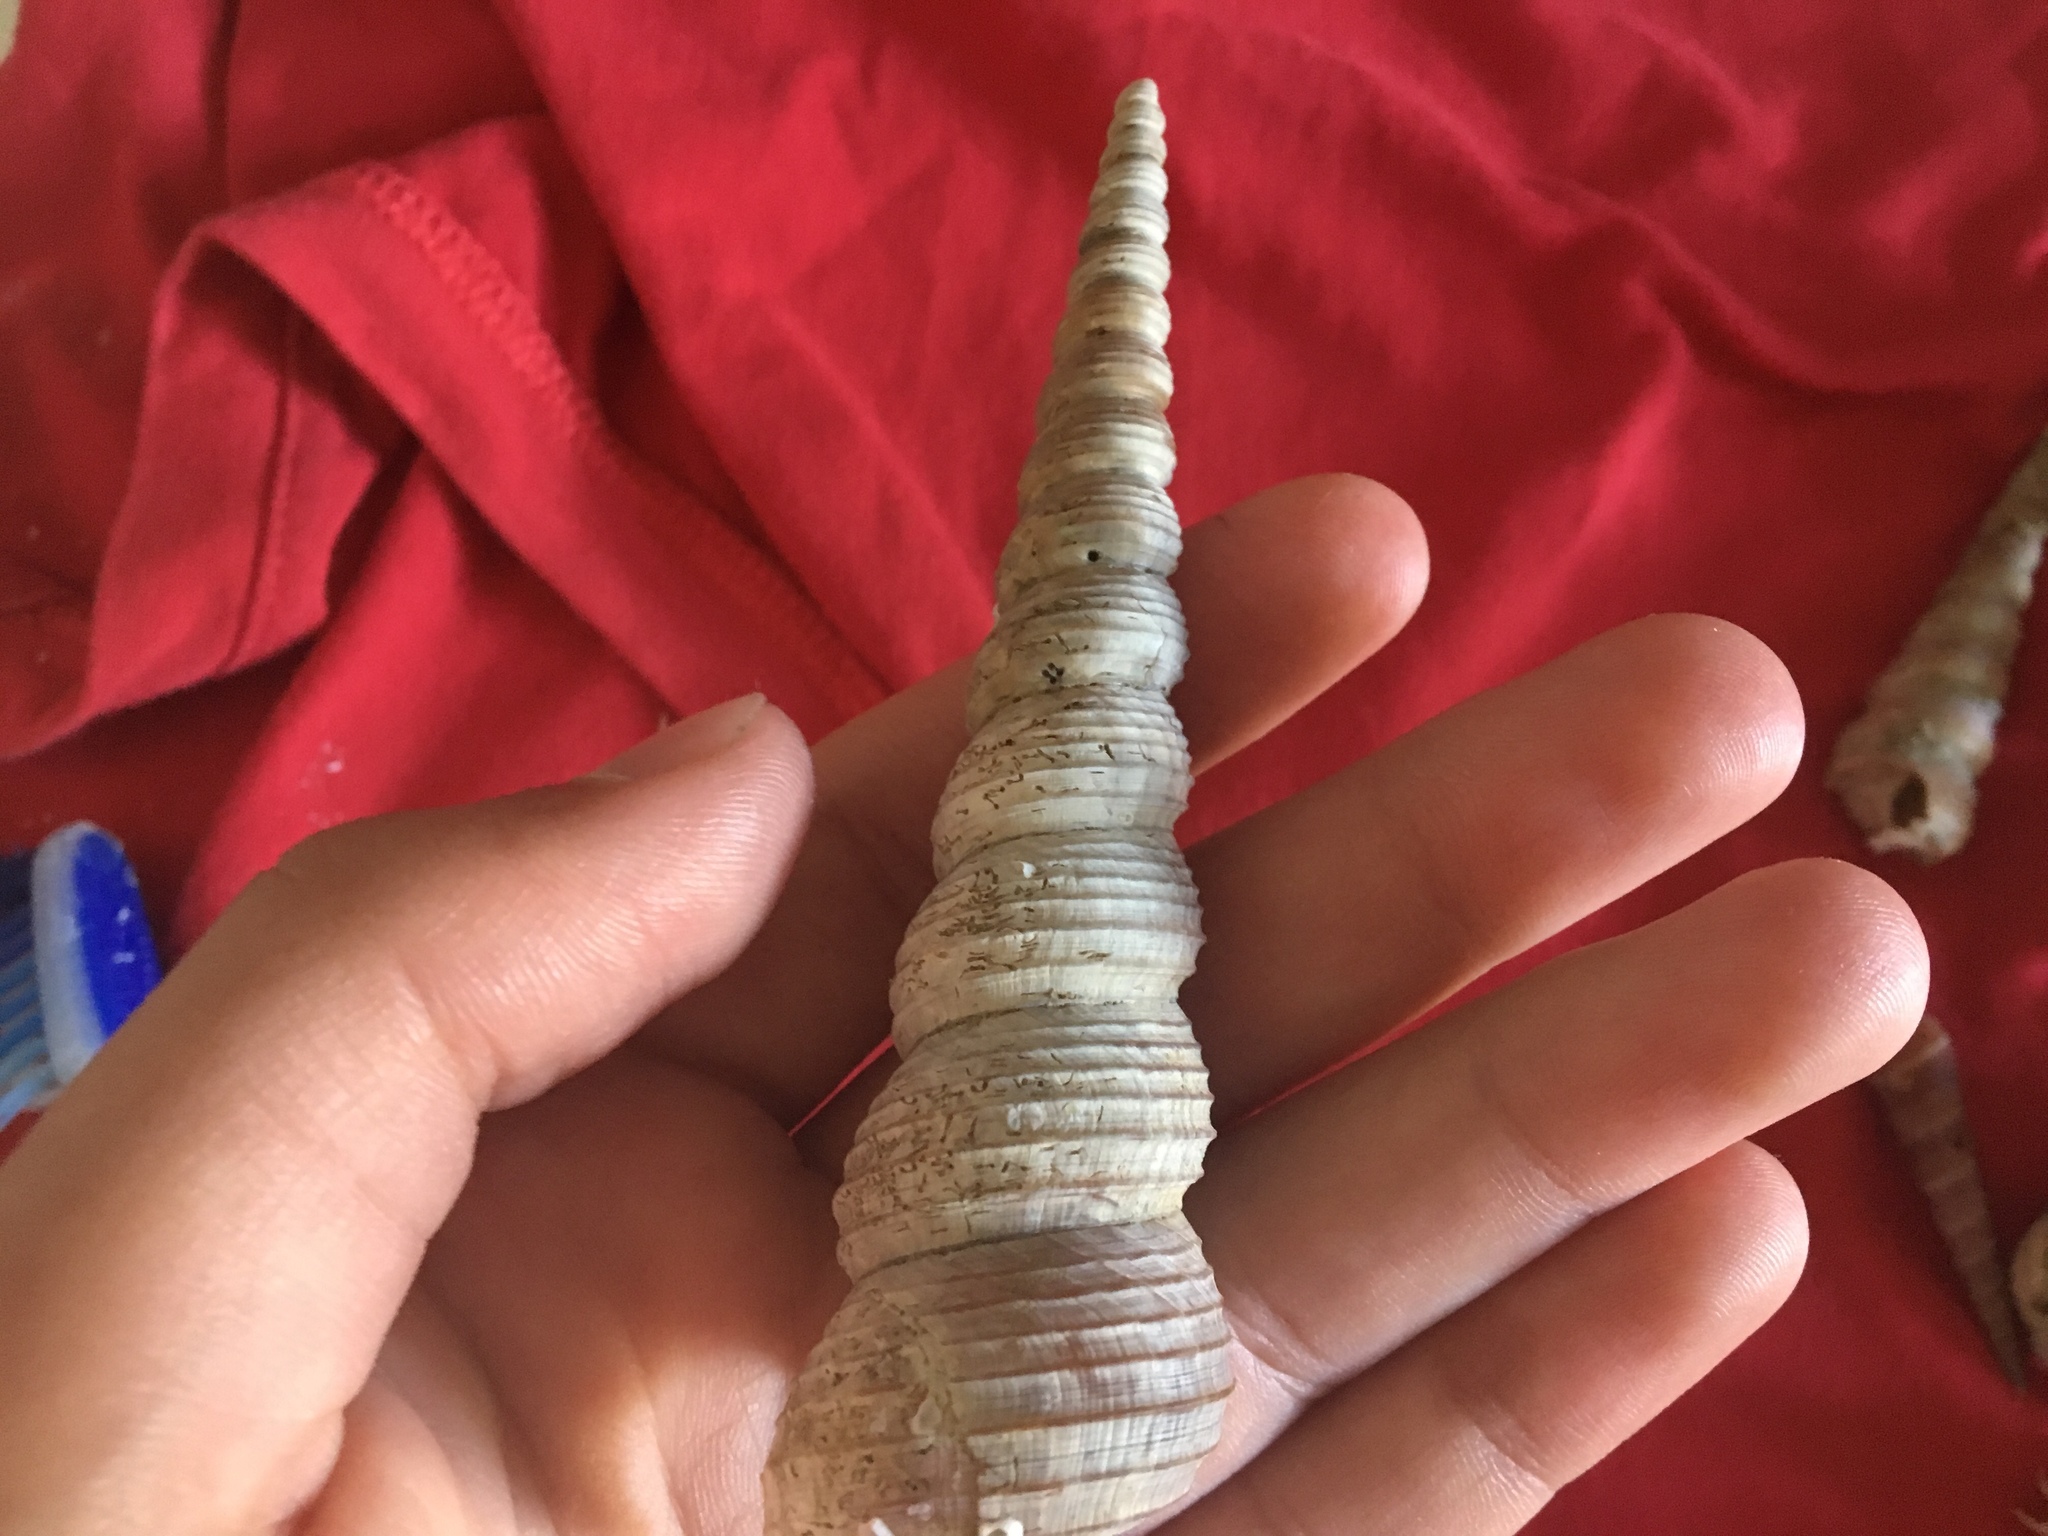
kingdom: Animalia
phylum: Mollusca
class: Gastropoda
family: Turritellidae
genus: Turritella
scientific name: Turritella terebra
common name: Auger screw shell
